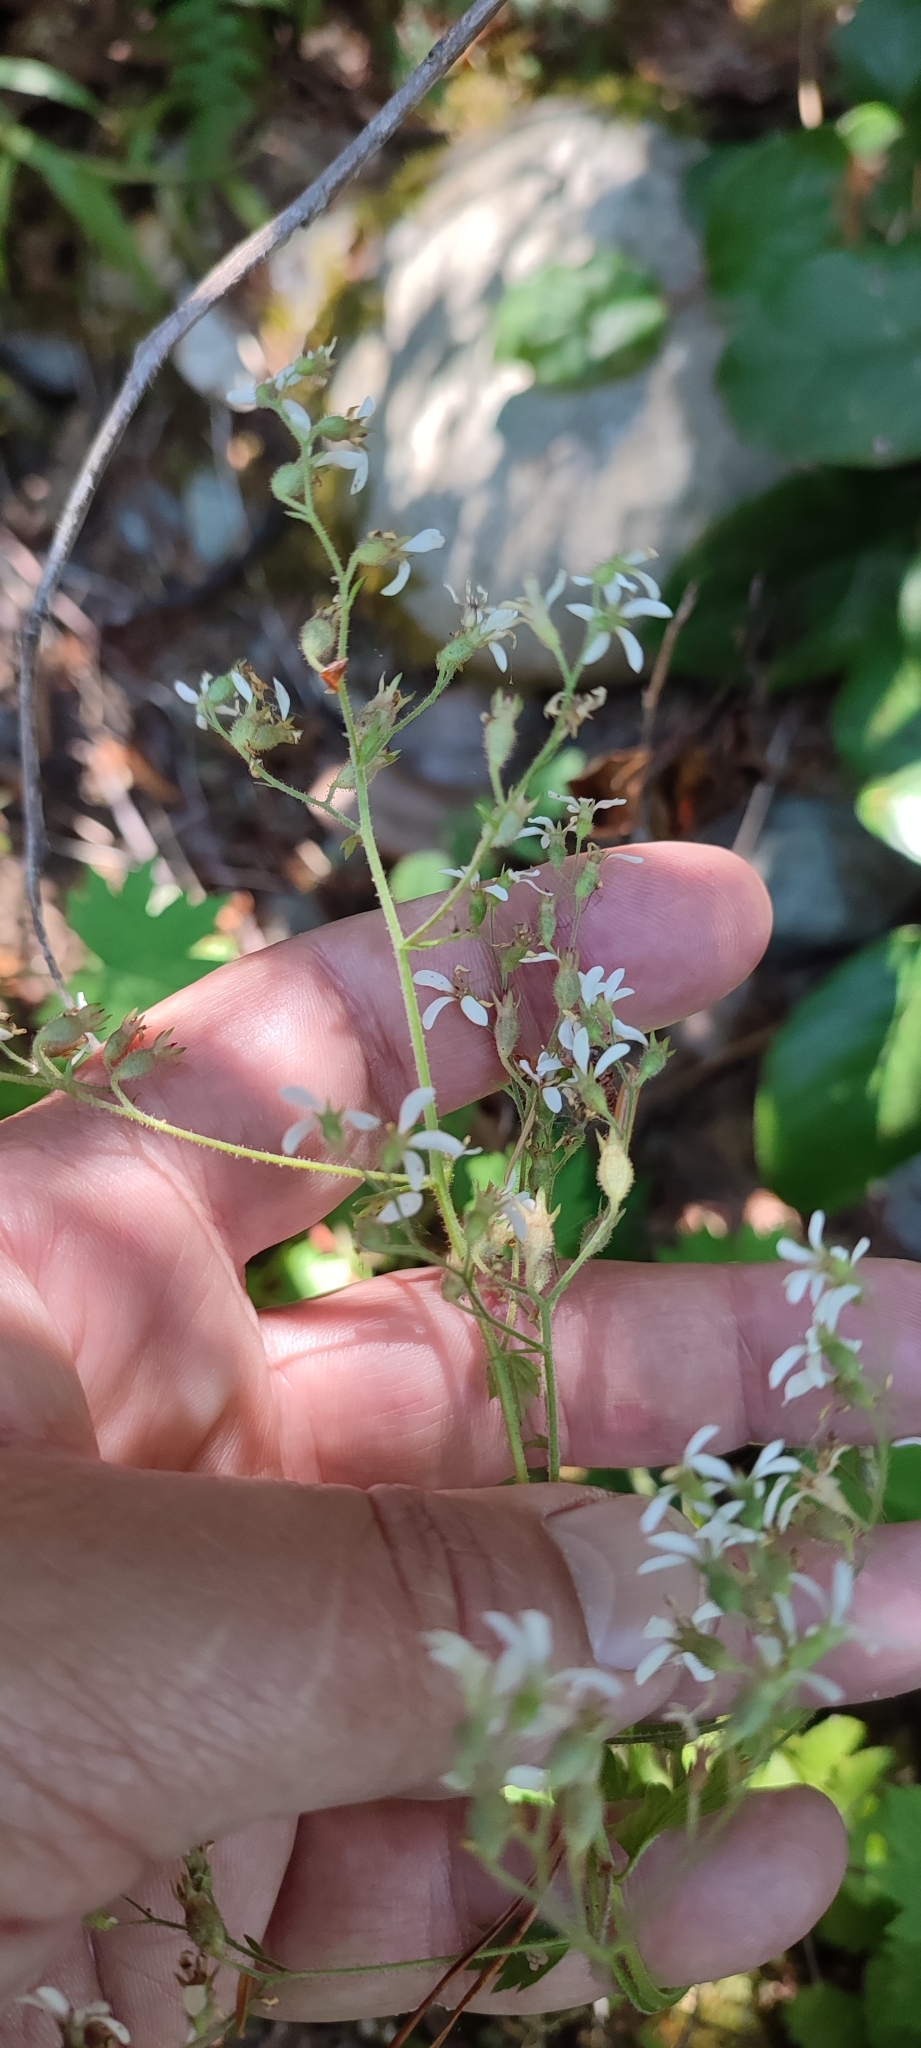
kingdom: Plantae
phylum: Tracheophyta
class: Magnoliopsida
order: Saxifragales
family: Saxifragaceae
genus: Boykinia
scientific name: Boykinia occidentalis
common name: Coast boykinia
